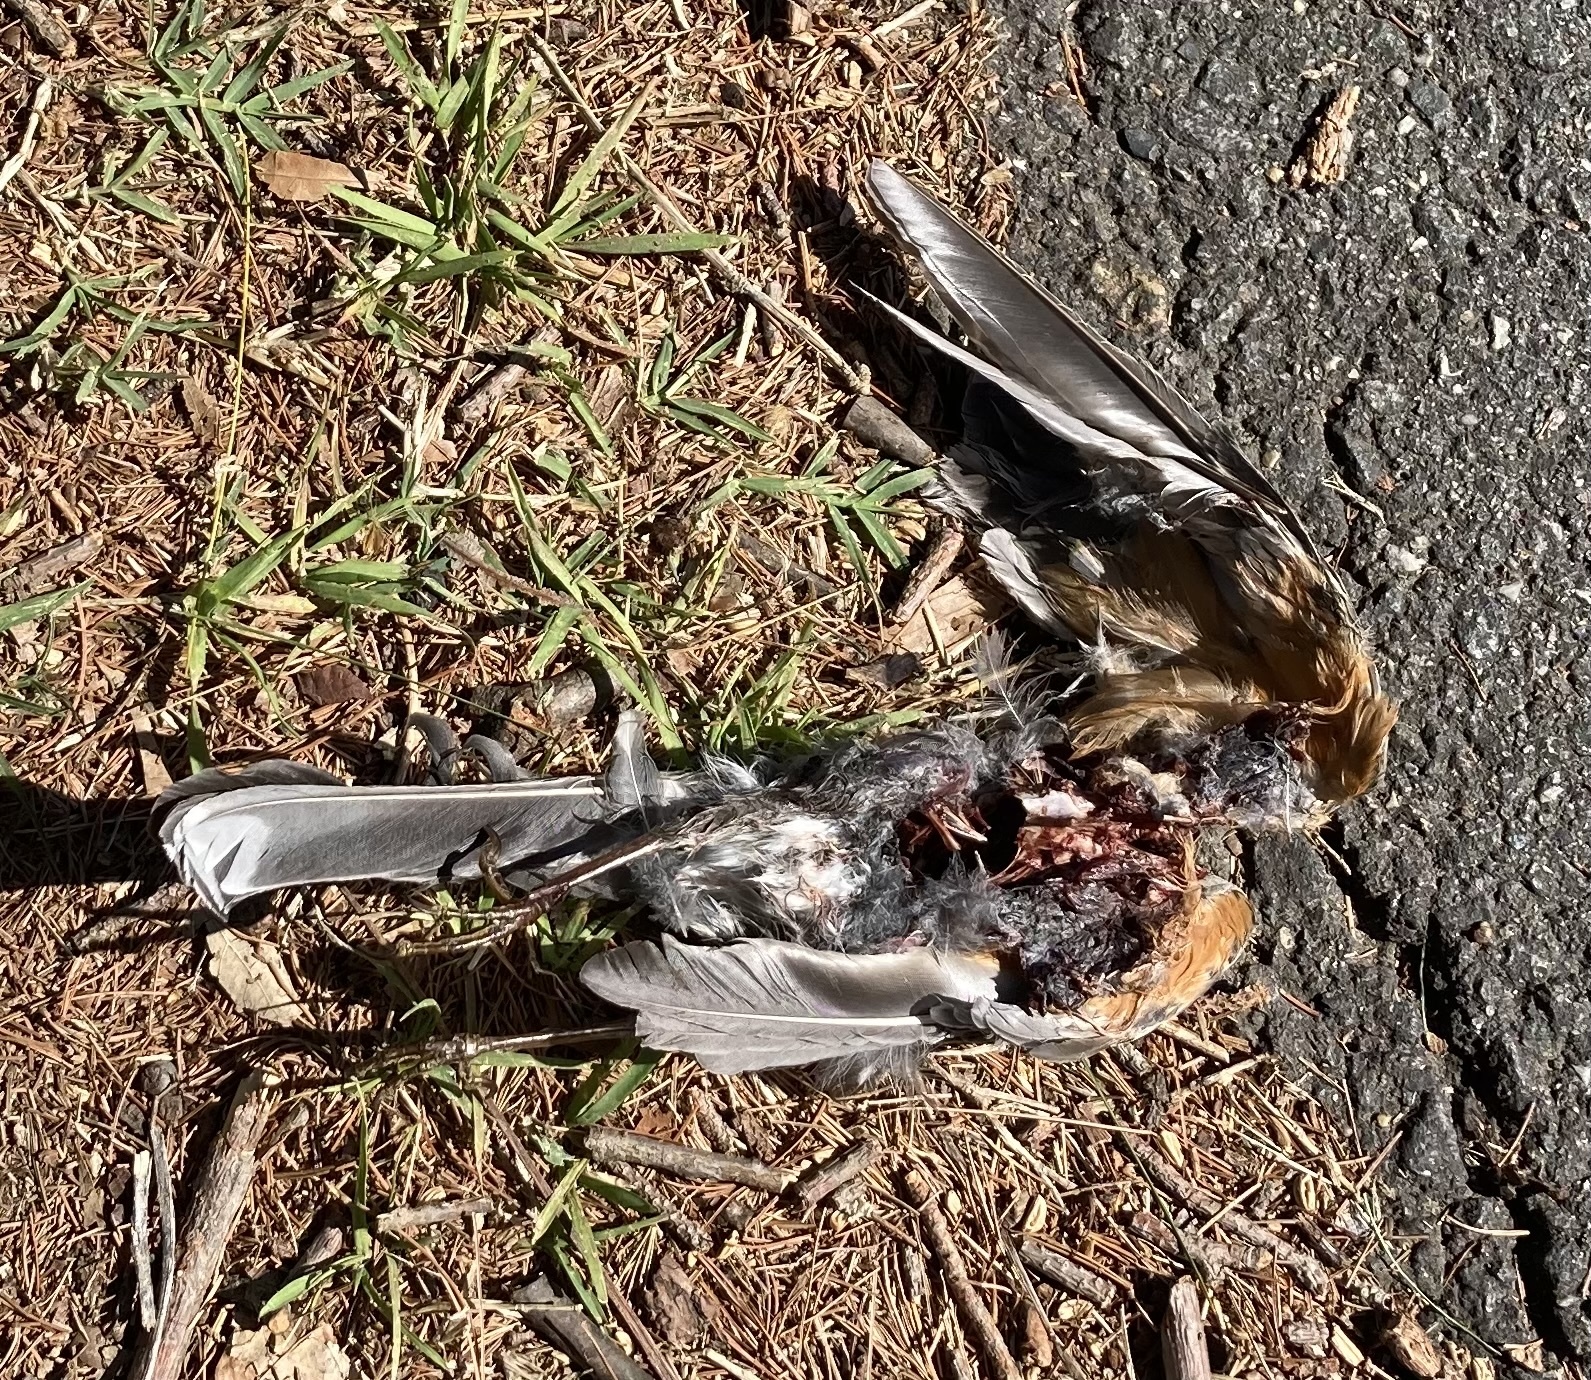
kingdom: Animalia
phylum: Chordata
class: Aves
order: Passeriformes
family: Turdidae
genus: Turdus
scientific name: Turdus migratorius
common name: American robin
